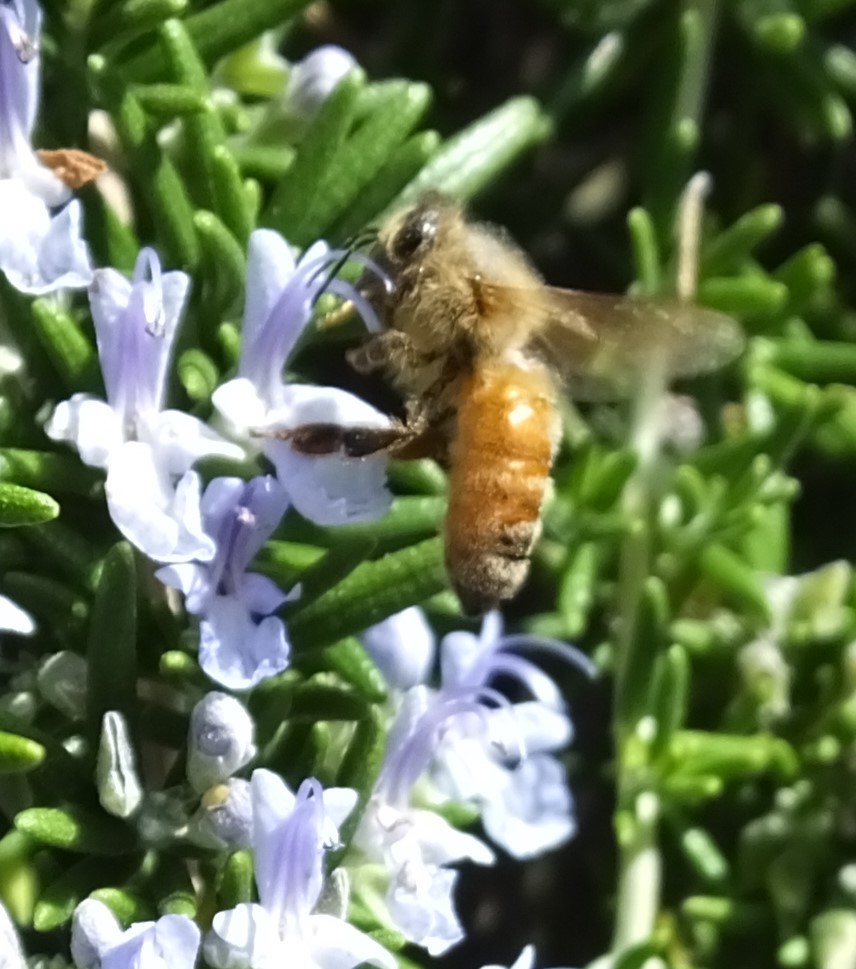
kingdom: Animalia
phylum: Arthropoda
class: Insecta
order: Hymenoptera
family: Apidae
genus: Apis
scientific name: Apis mellifera
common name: Honey bee
